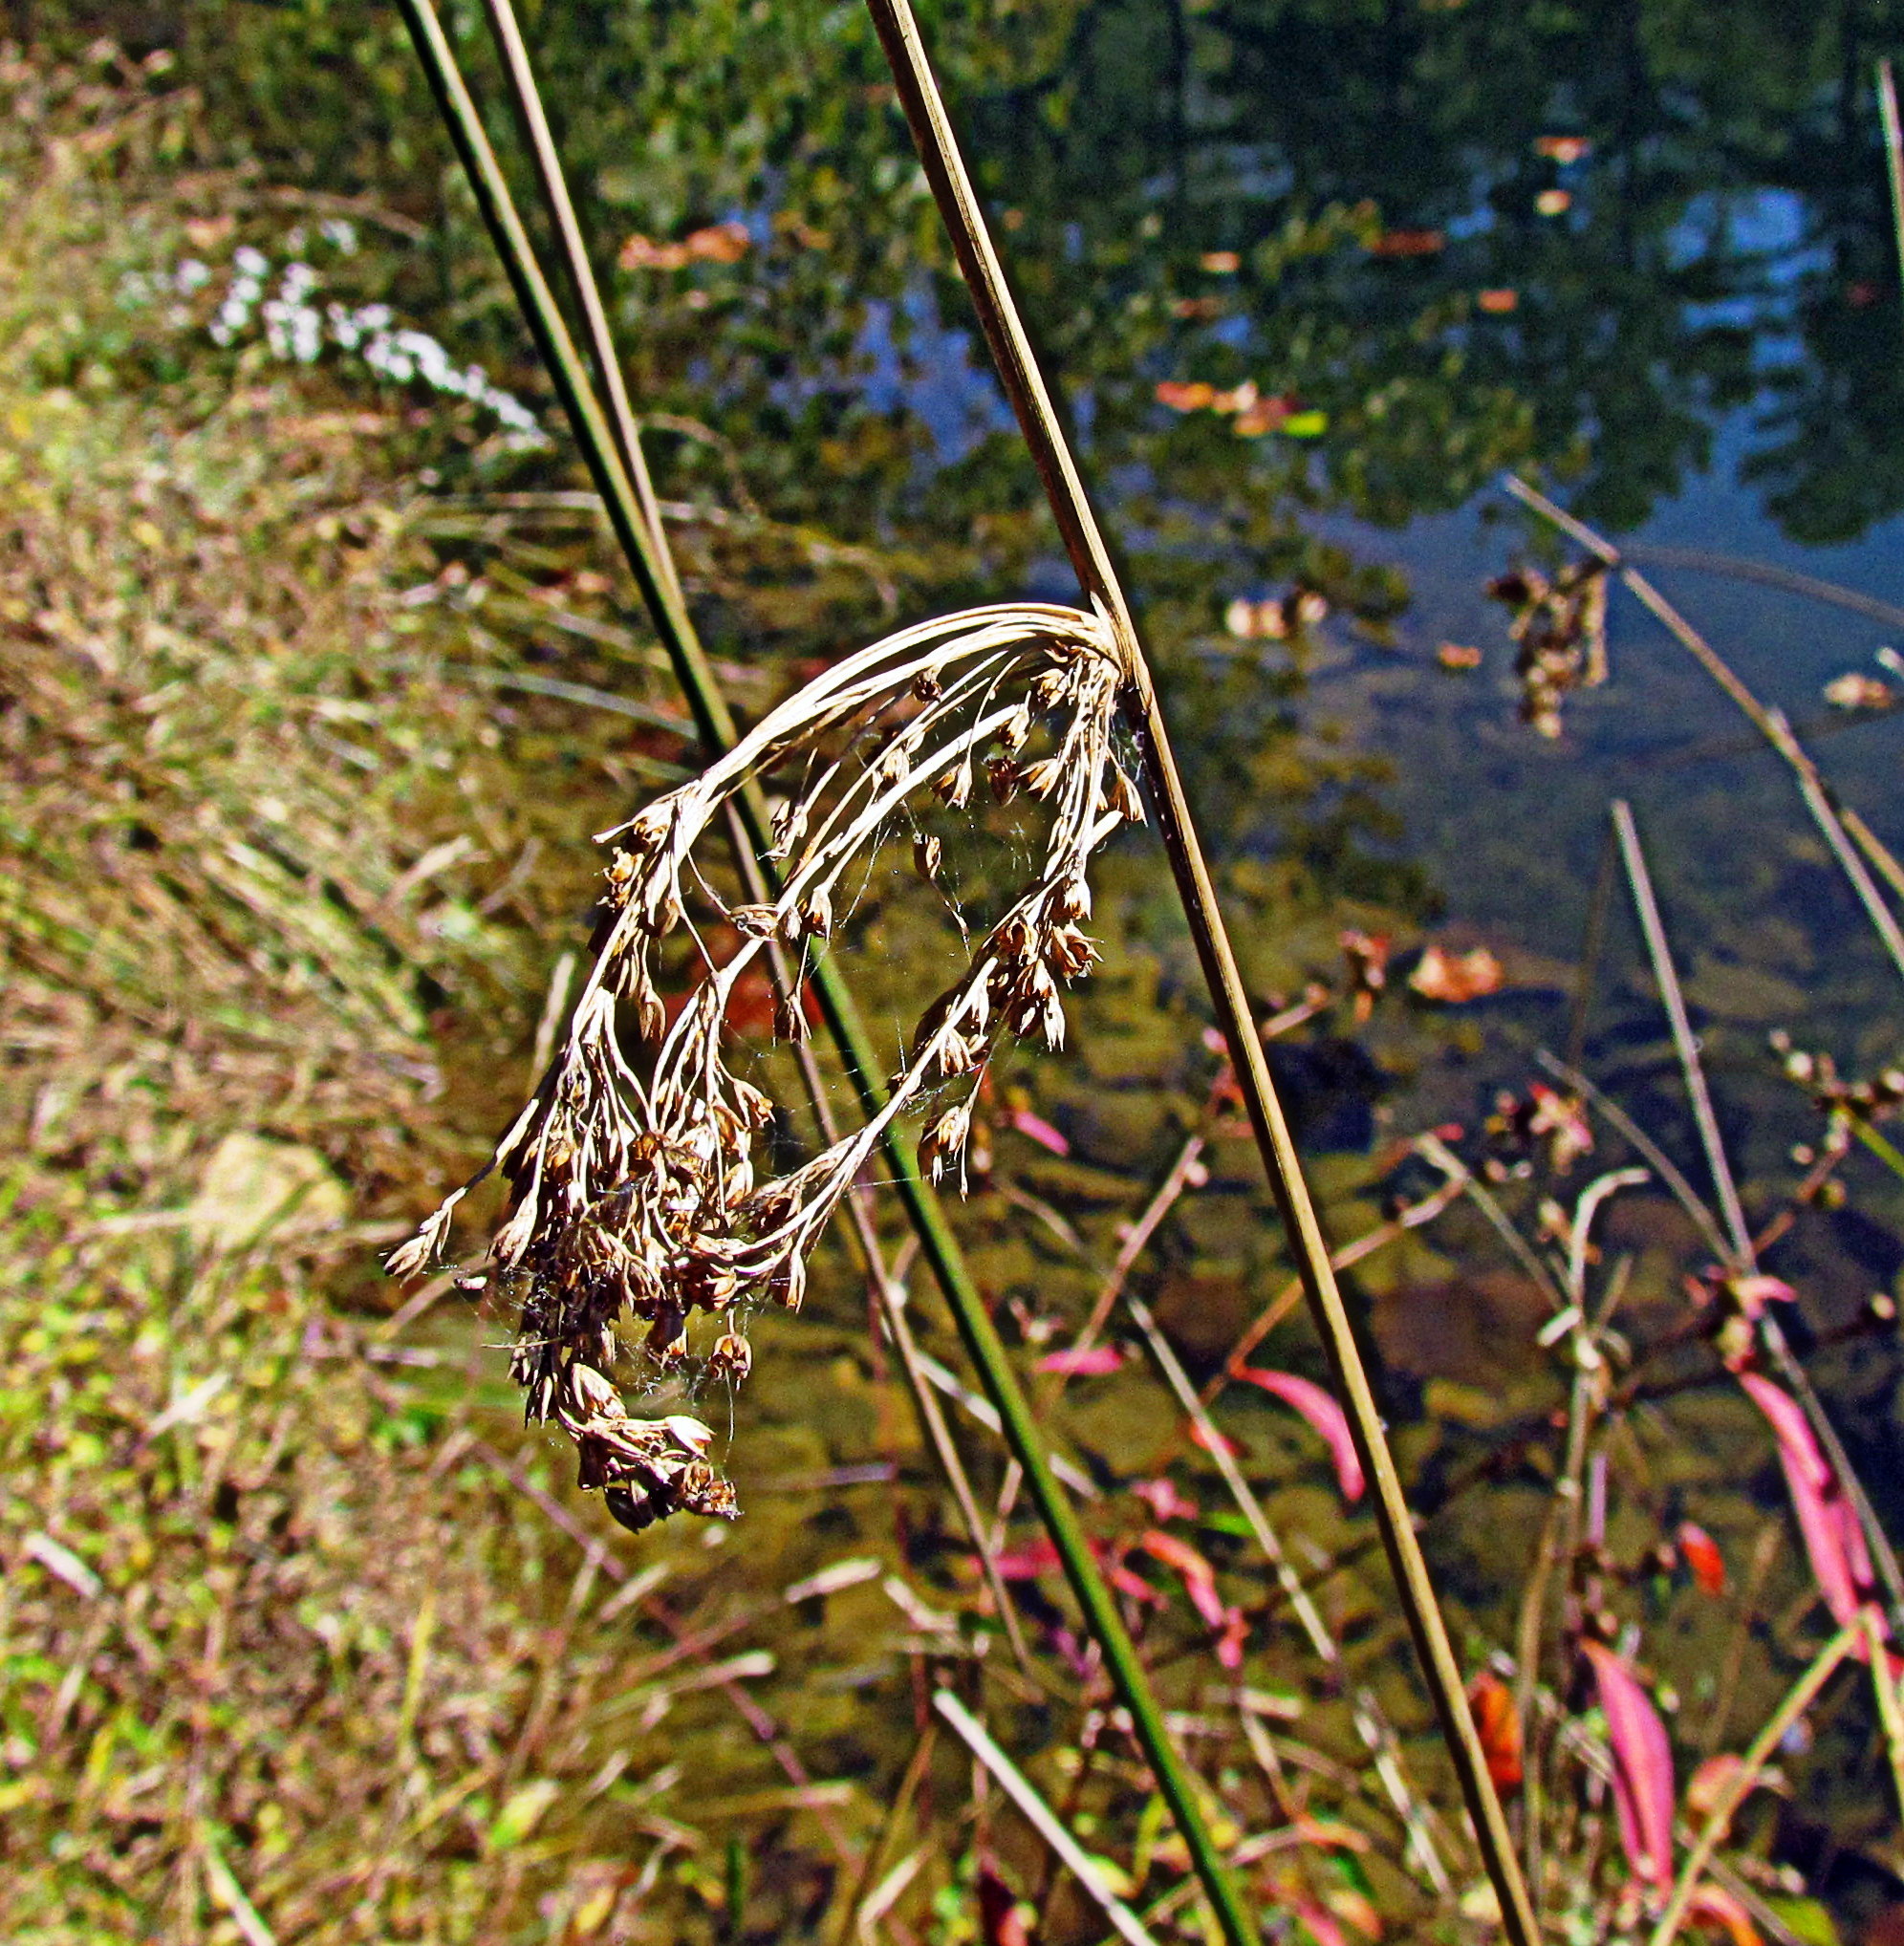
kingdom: Plantae
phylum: Tracheophyta
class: Liliopsida
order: Poales
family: Juncaceae
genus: Juncus
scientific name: Juncus effusus
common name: Soft rush
